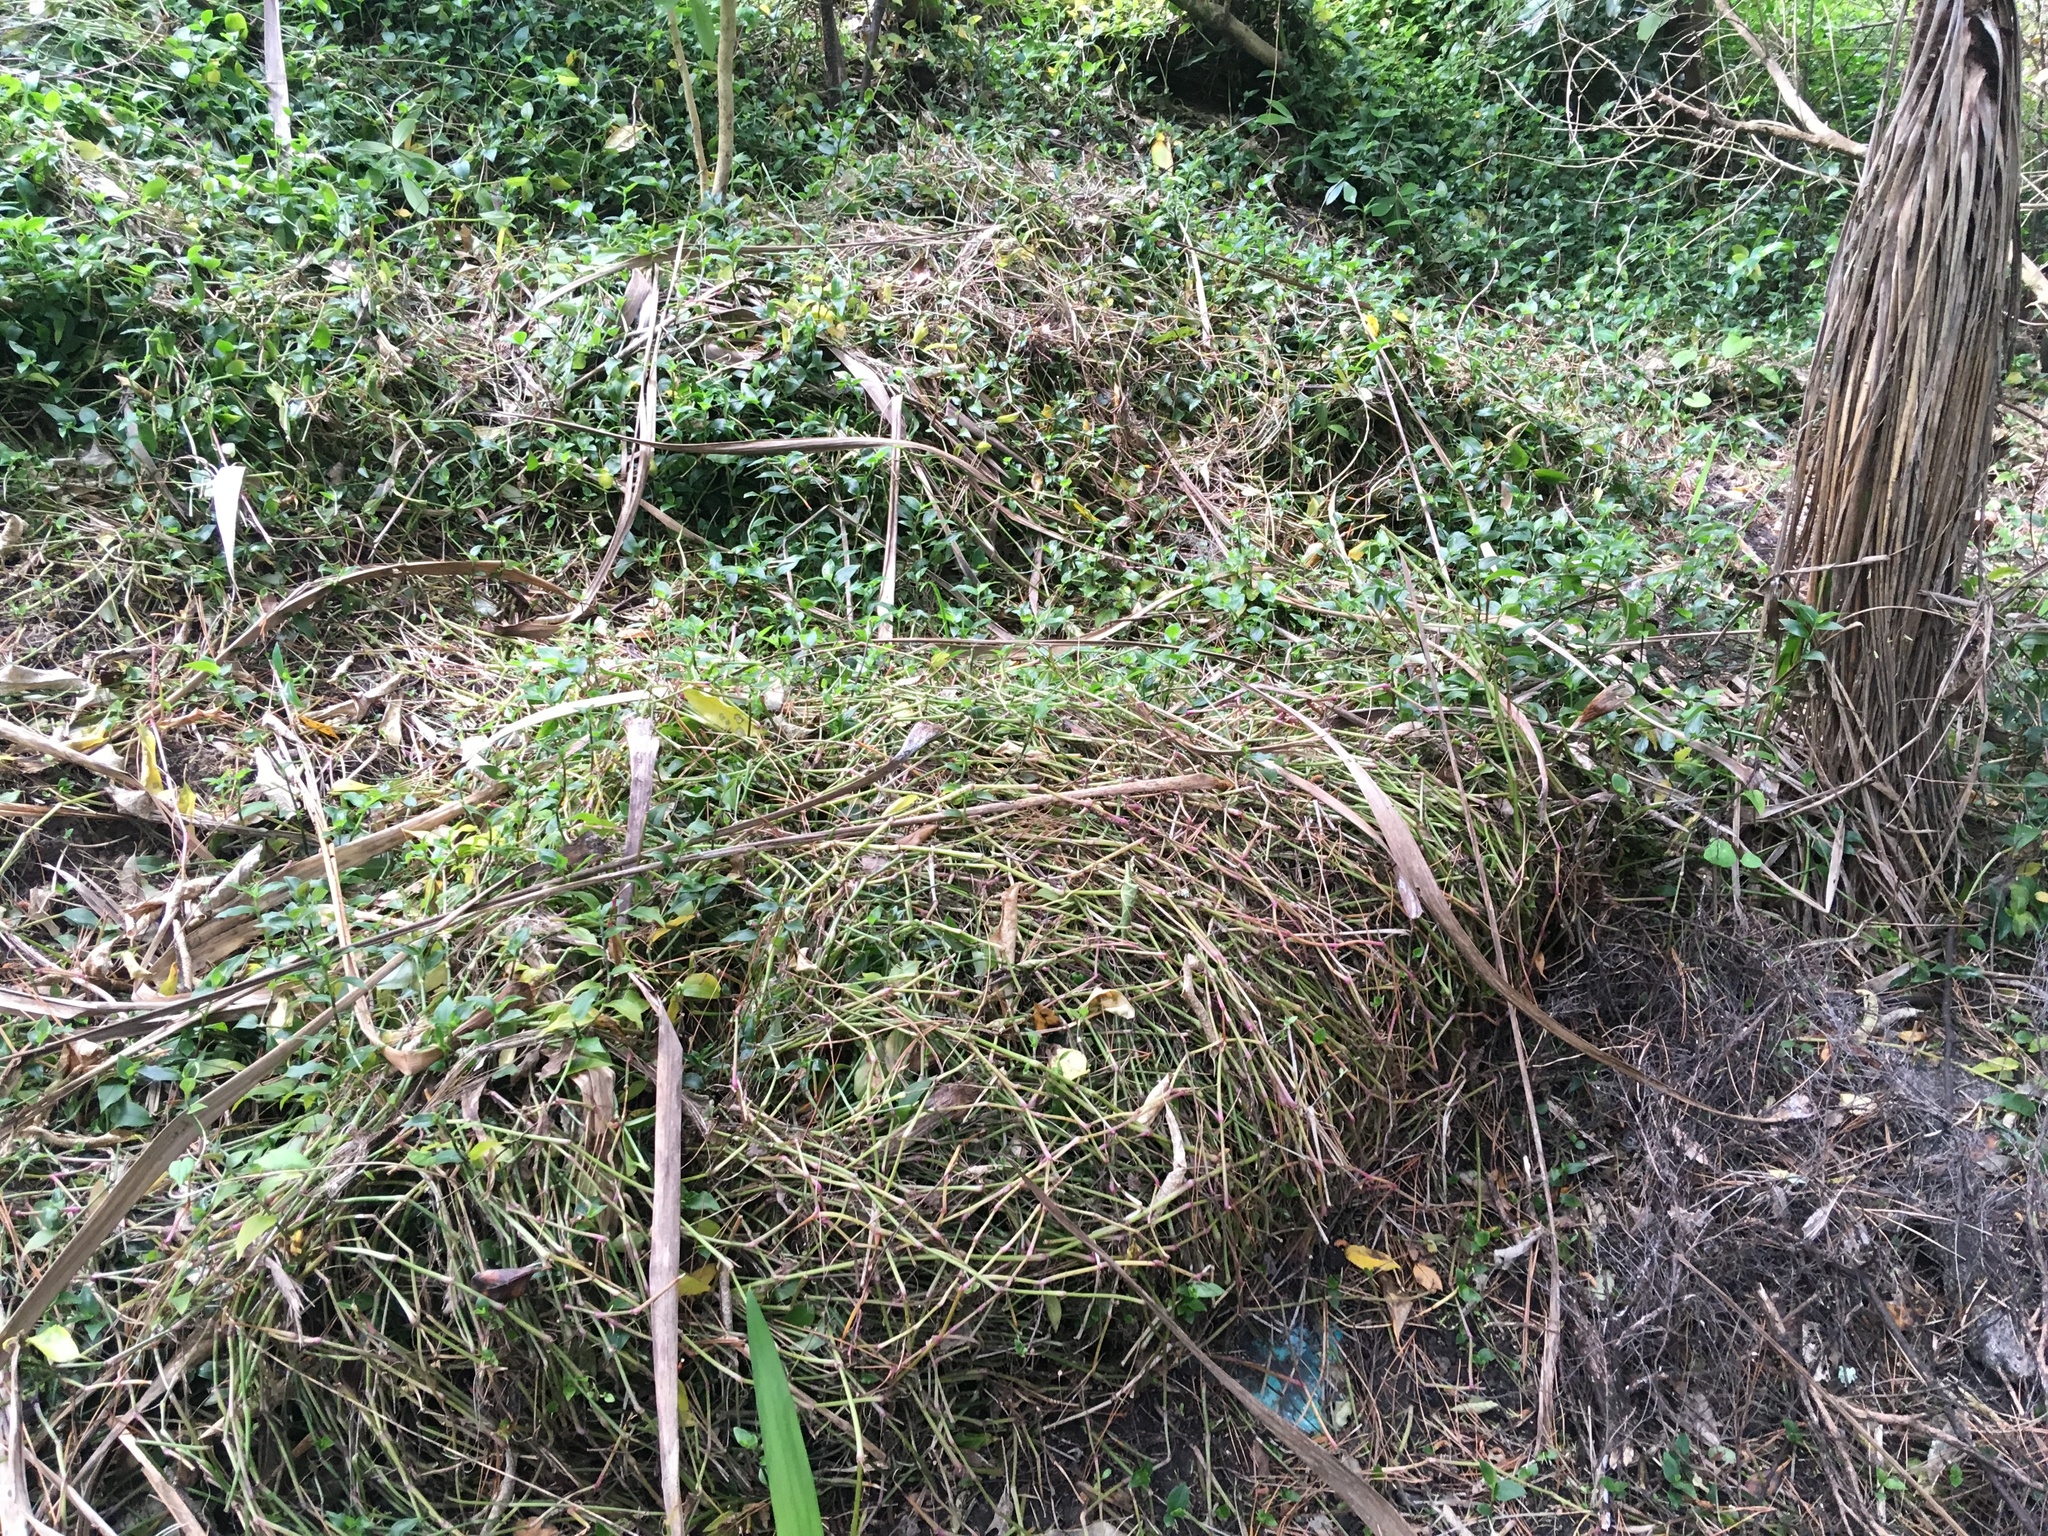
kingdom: Plantae
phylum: Tracheophyta
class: Liliopsida
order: Commelinales
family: Commelinaceae
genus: Tradescantia
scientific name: Tradescantia fluminensis
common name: Wandering-jew
